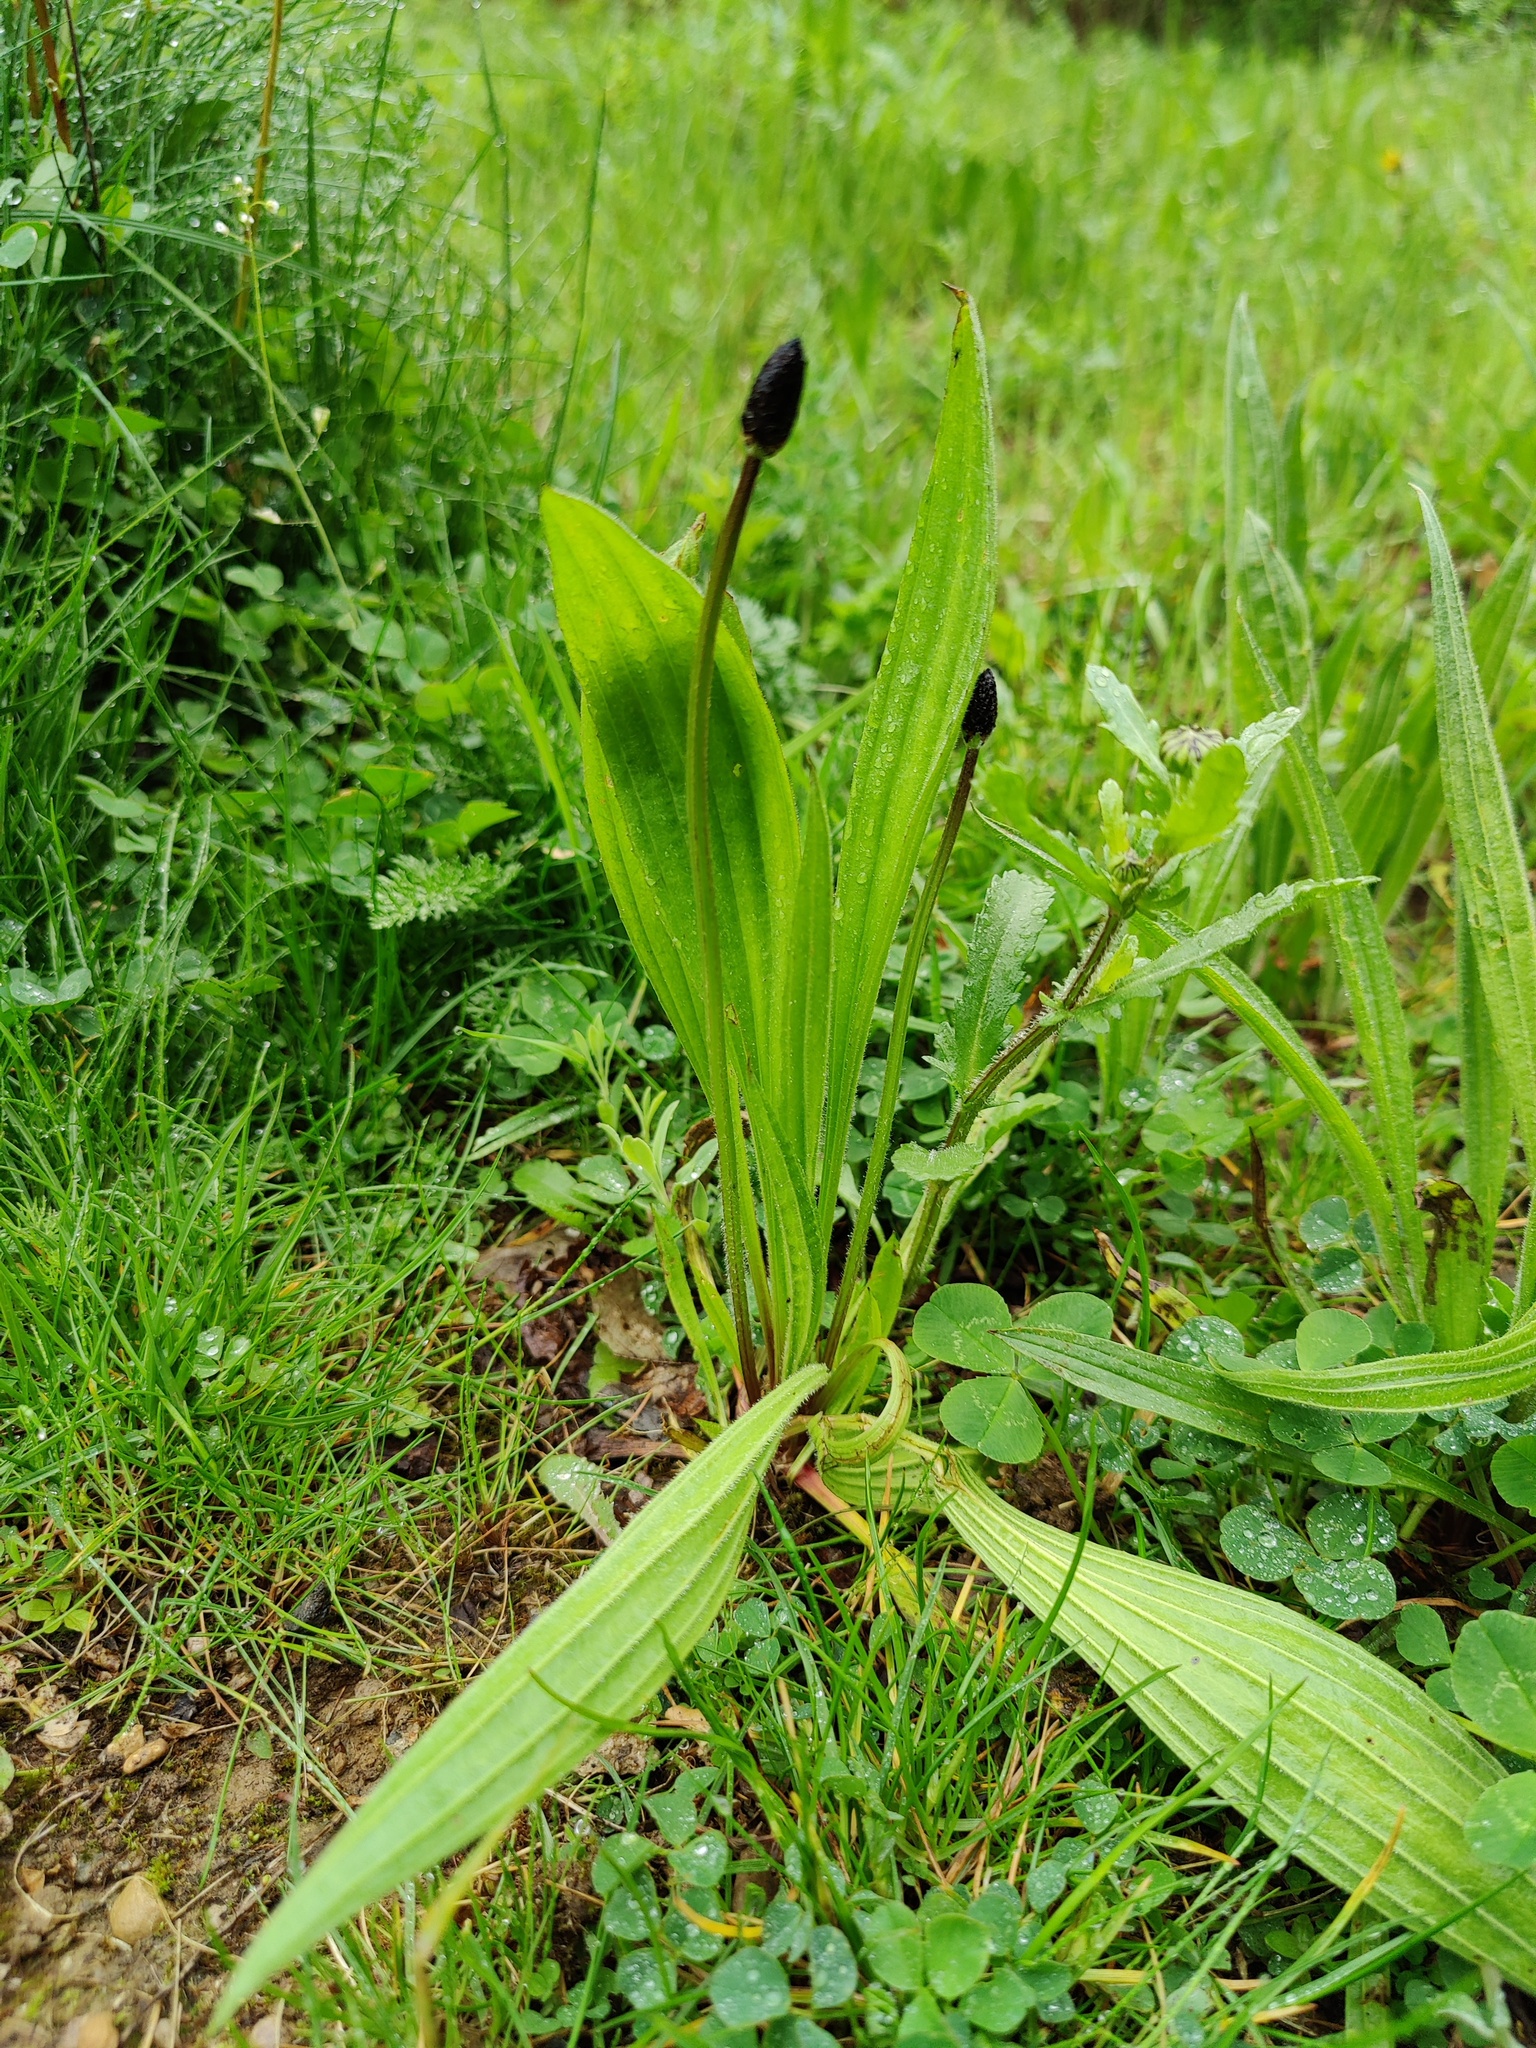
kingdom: Plantae
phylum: Tracheophyta
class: Magnoliopsida
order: Lamiales
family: Plantaginaceae
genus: Plantago
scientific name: Plantago lanceolata
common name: Ribwort plantain
